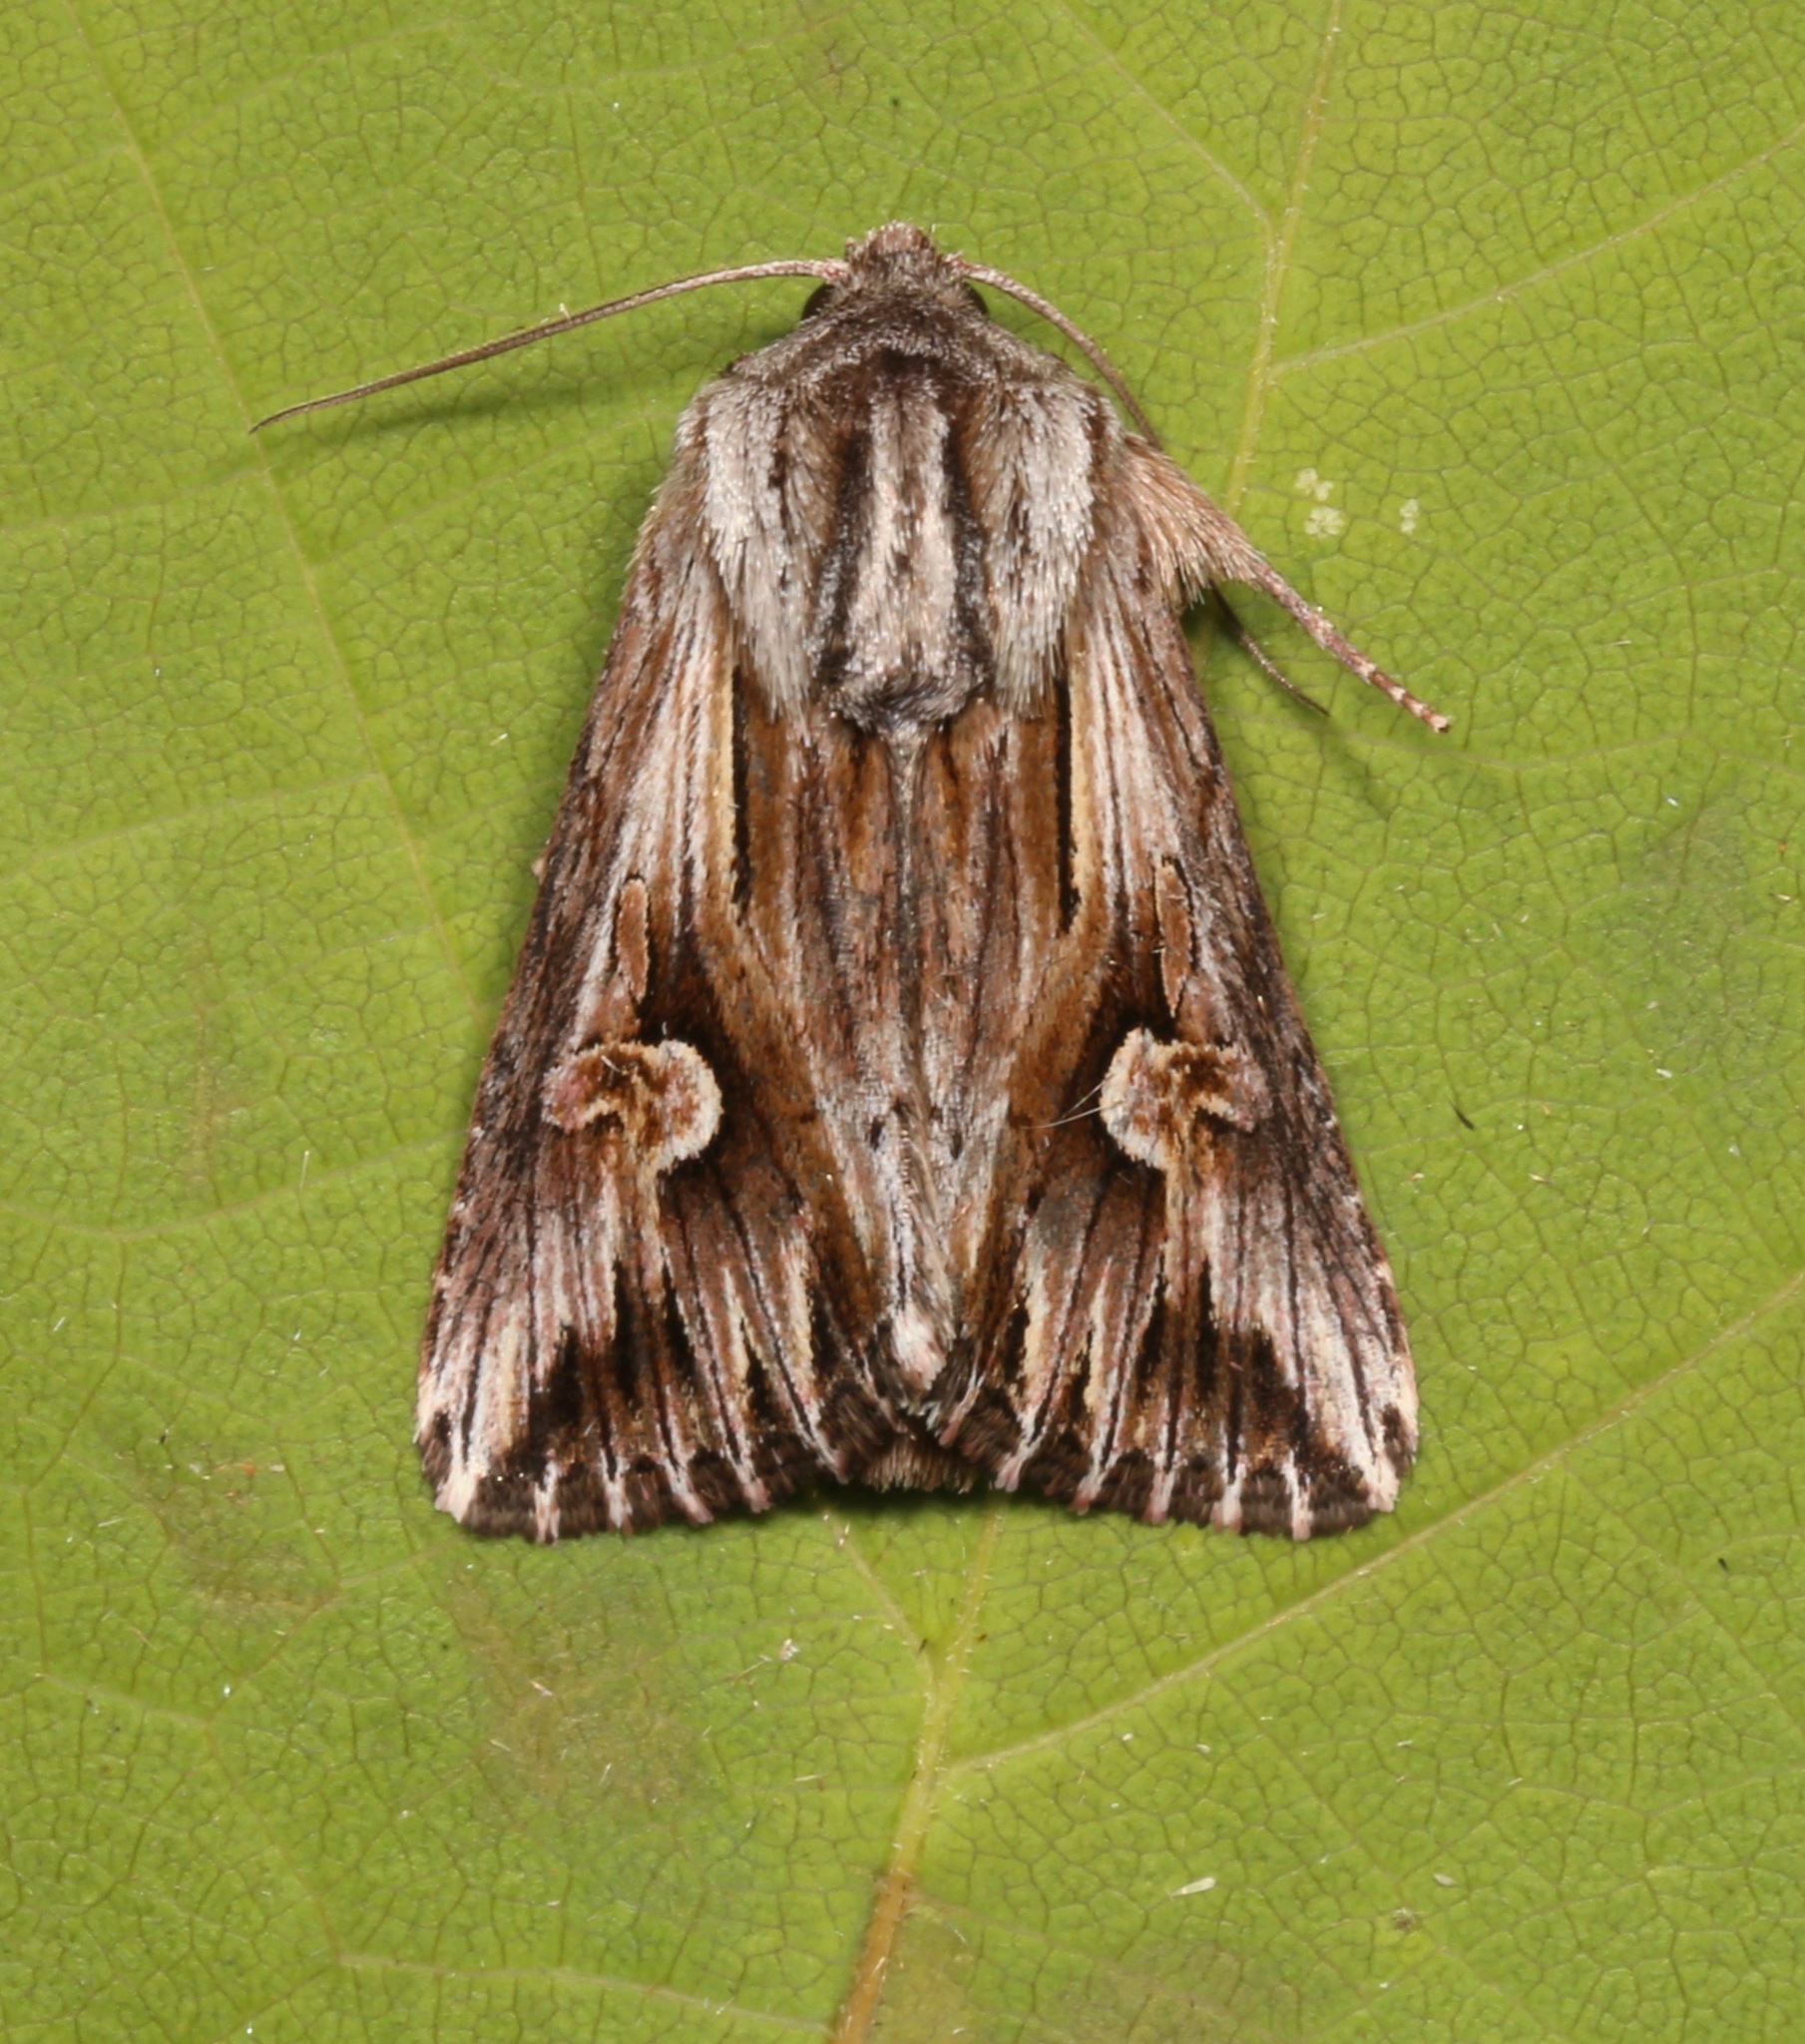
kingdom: Animalia
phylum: Arthropoda
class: Insecta
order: Lepidoptera
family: Noctuidae
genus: Nedra
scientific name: Nedra ramosula
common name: Gray half-spot
